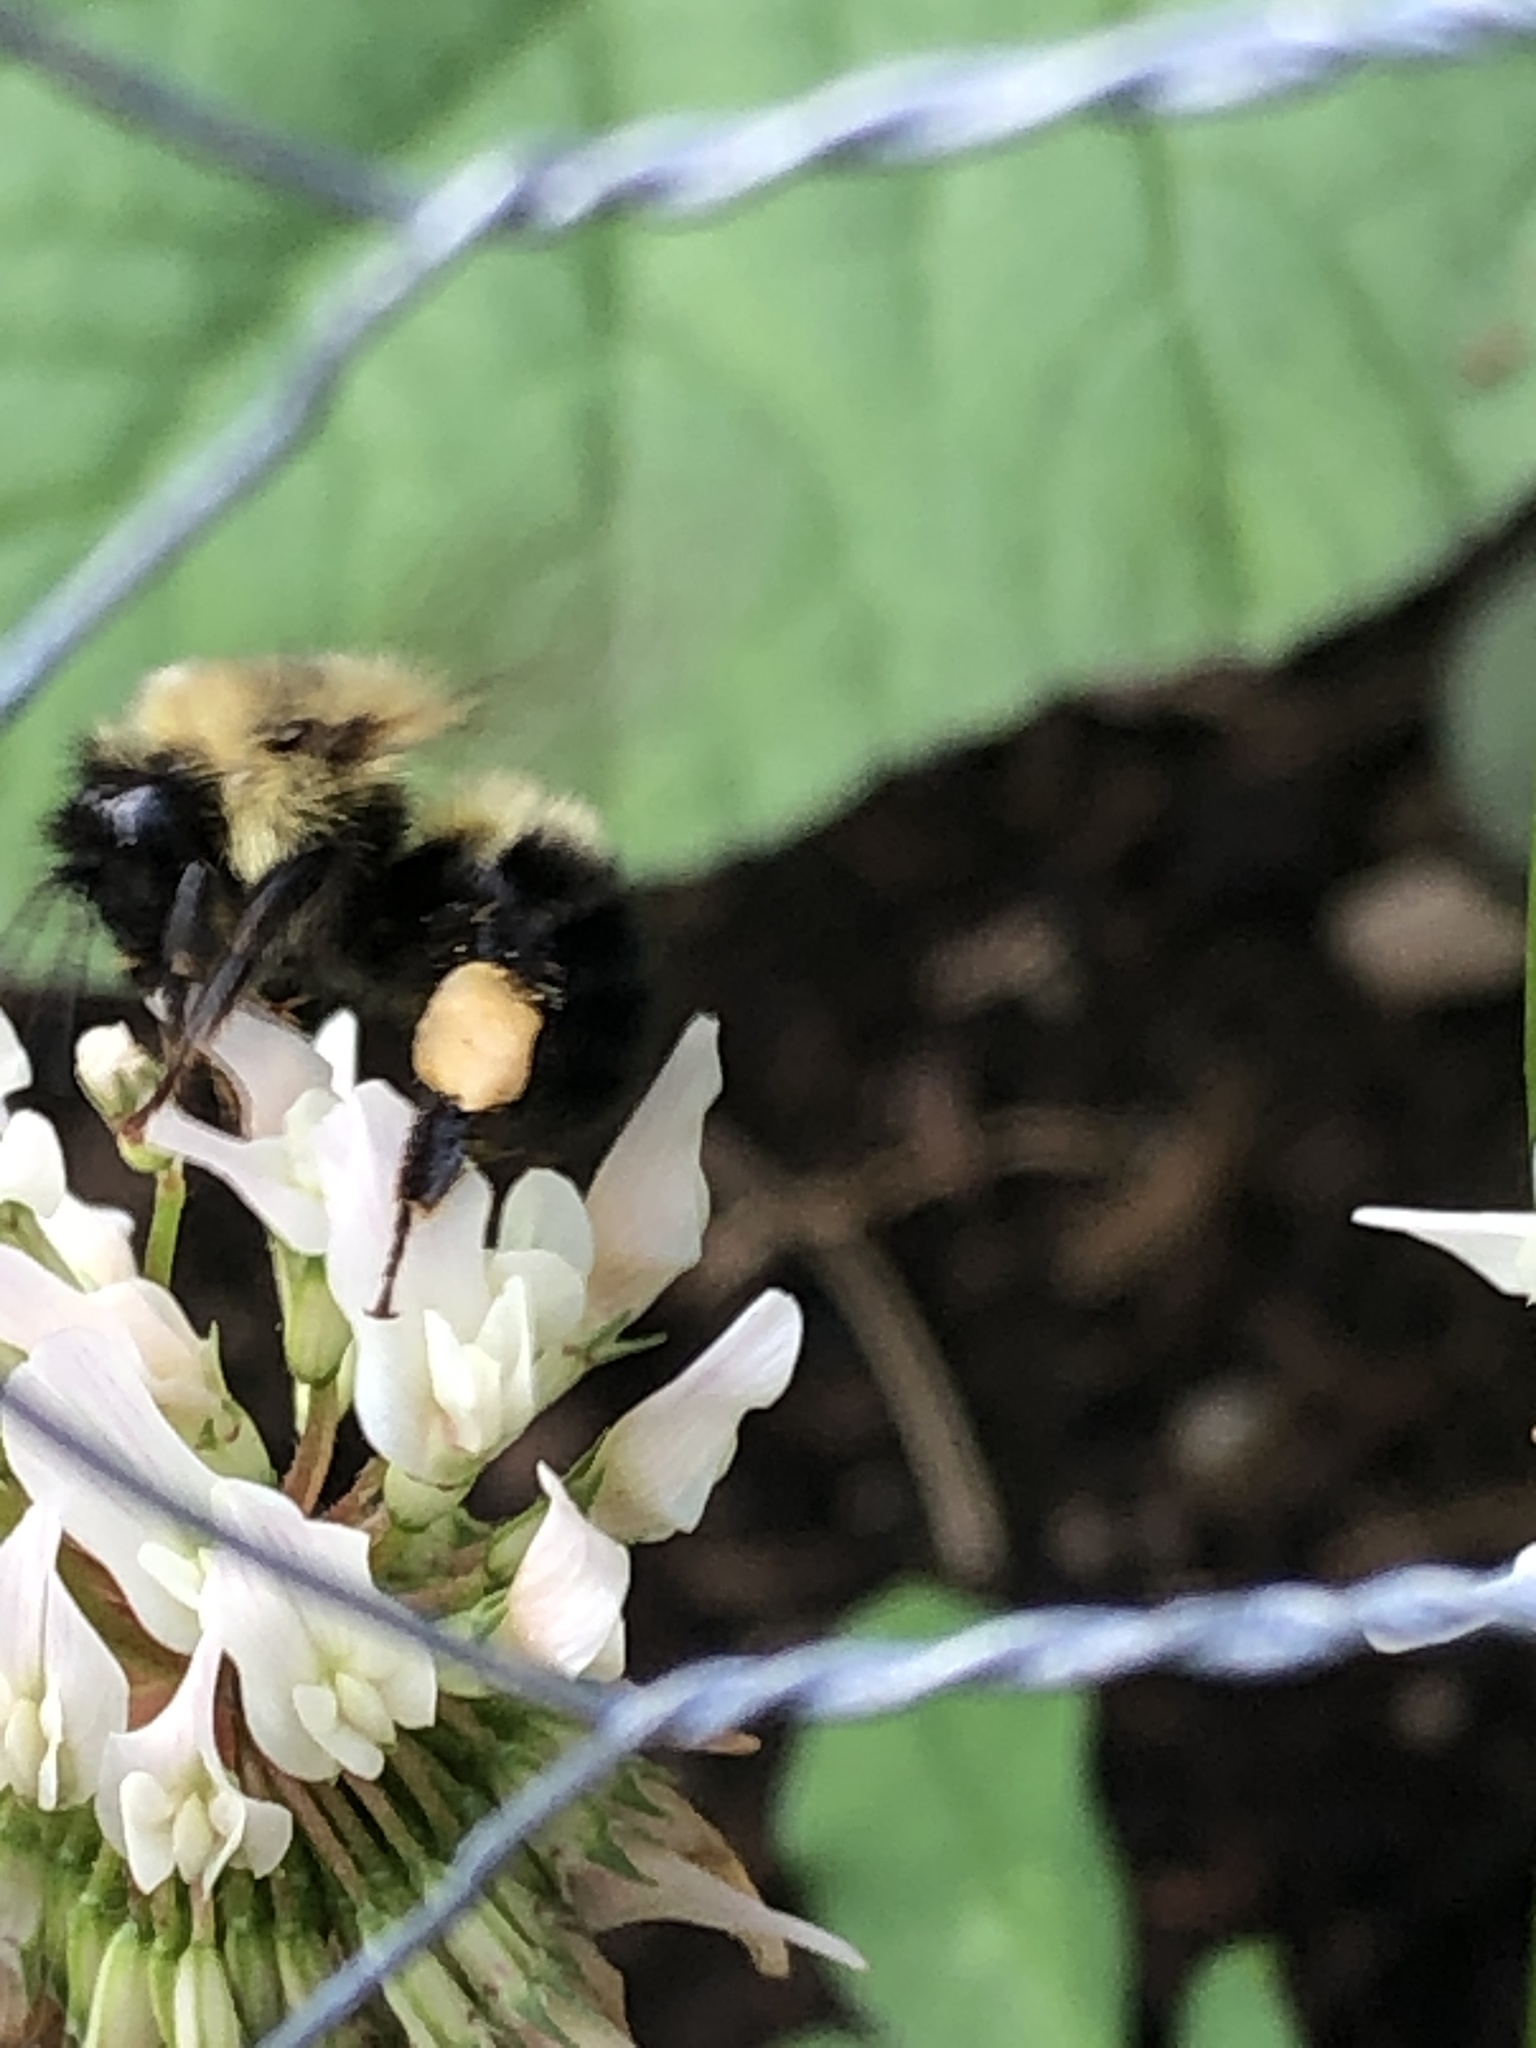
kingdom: Animalia
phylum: Arthropoda
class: Insecta
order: Hymenoptera
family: Apidae
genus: Bombus
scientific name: Bombus bimaculatus
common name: Two-spotted bumble bee
